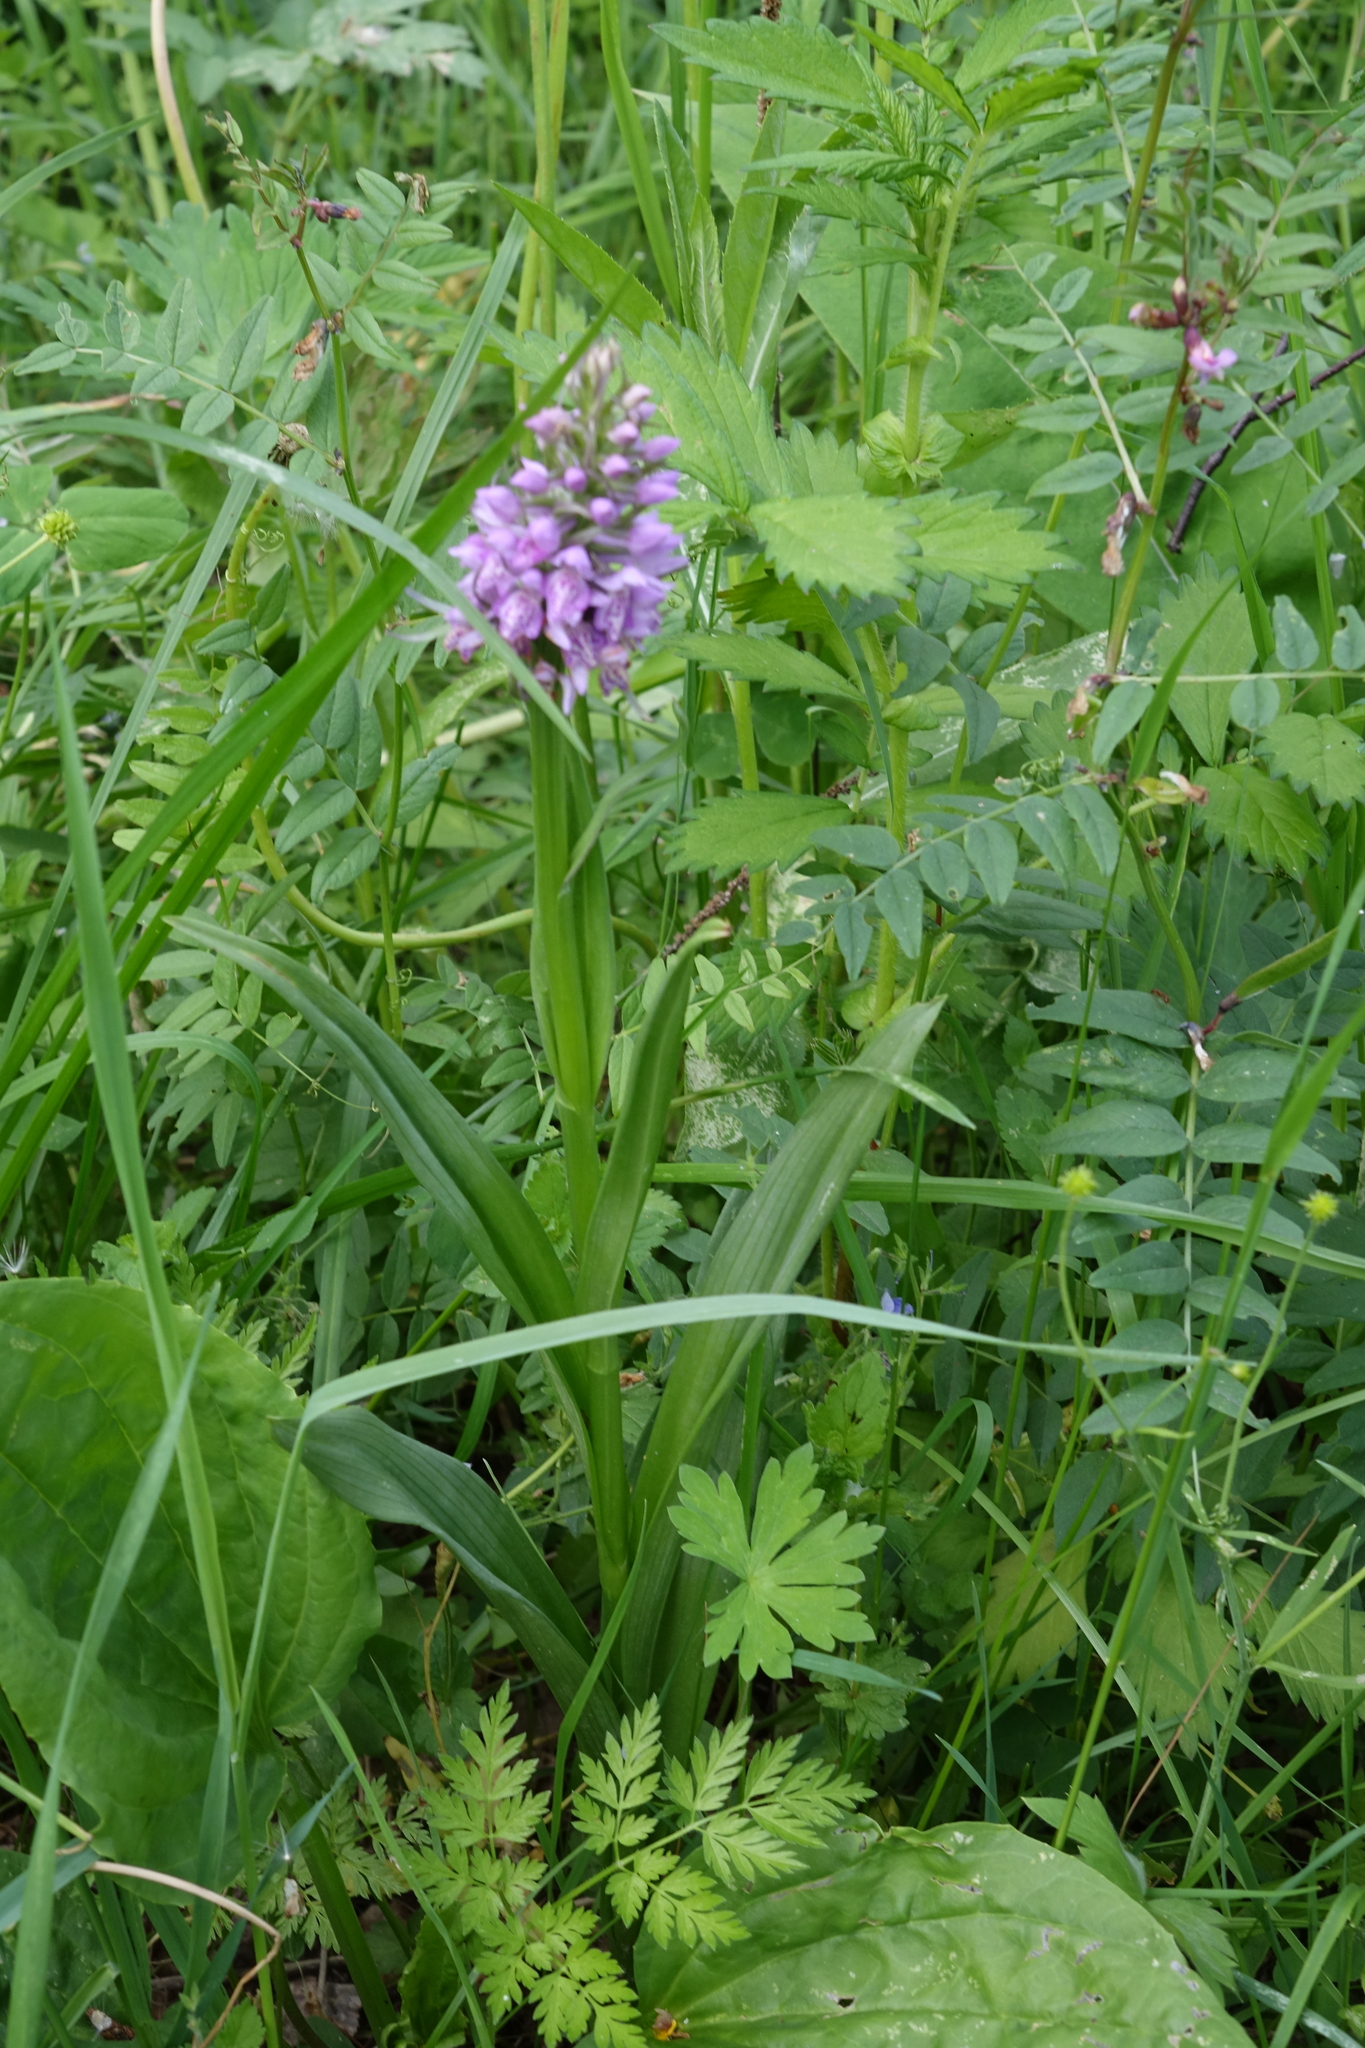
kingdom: Plantae
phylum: Tracheophyta
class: Liliopsida
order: Asparagales
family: Orchidaceae
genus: Dactylorhiza
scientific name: Dactylorhiza sibirica
